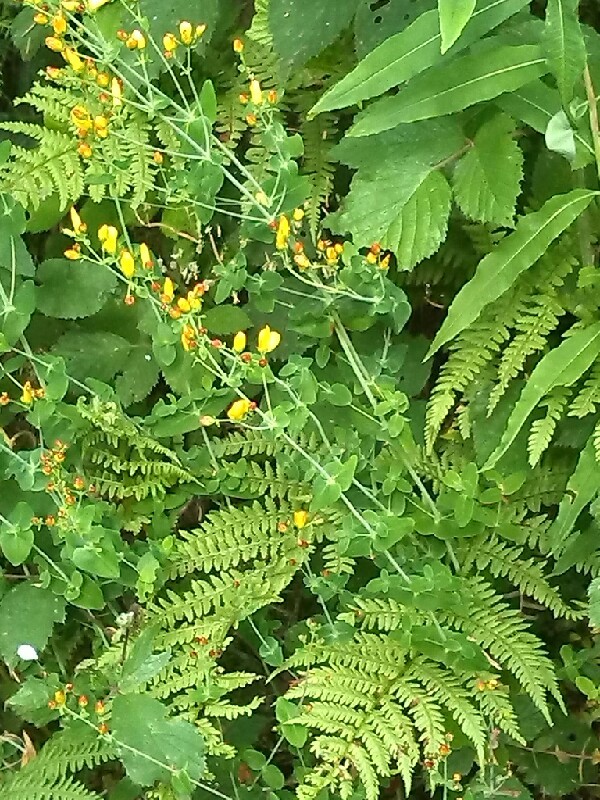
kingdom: Plantae
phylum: Tracheophyta
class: Magnoliopsida
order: Malpighiales
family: Hypericaceae
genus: Hypericum
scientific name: Hypericum pulchrum
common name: Slender st. john's-wort
